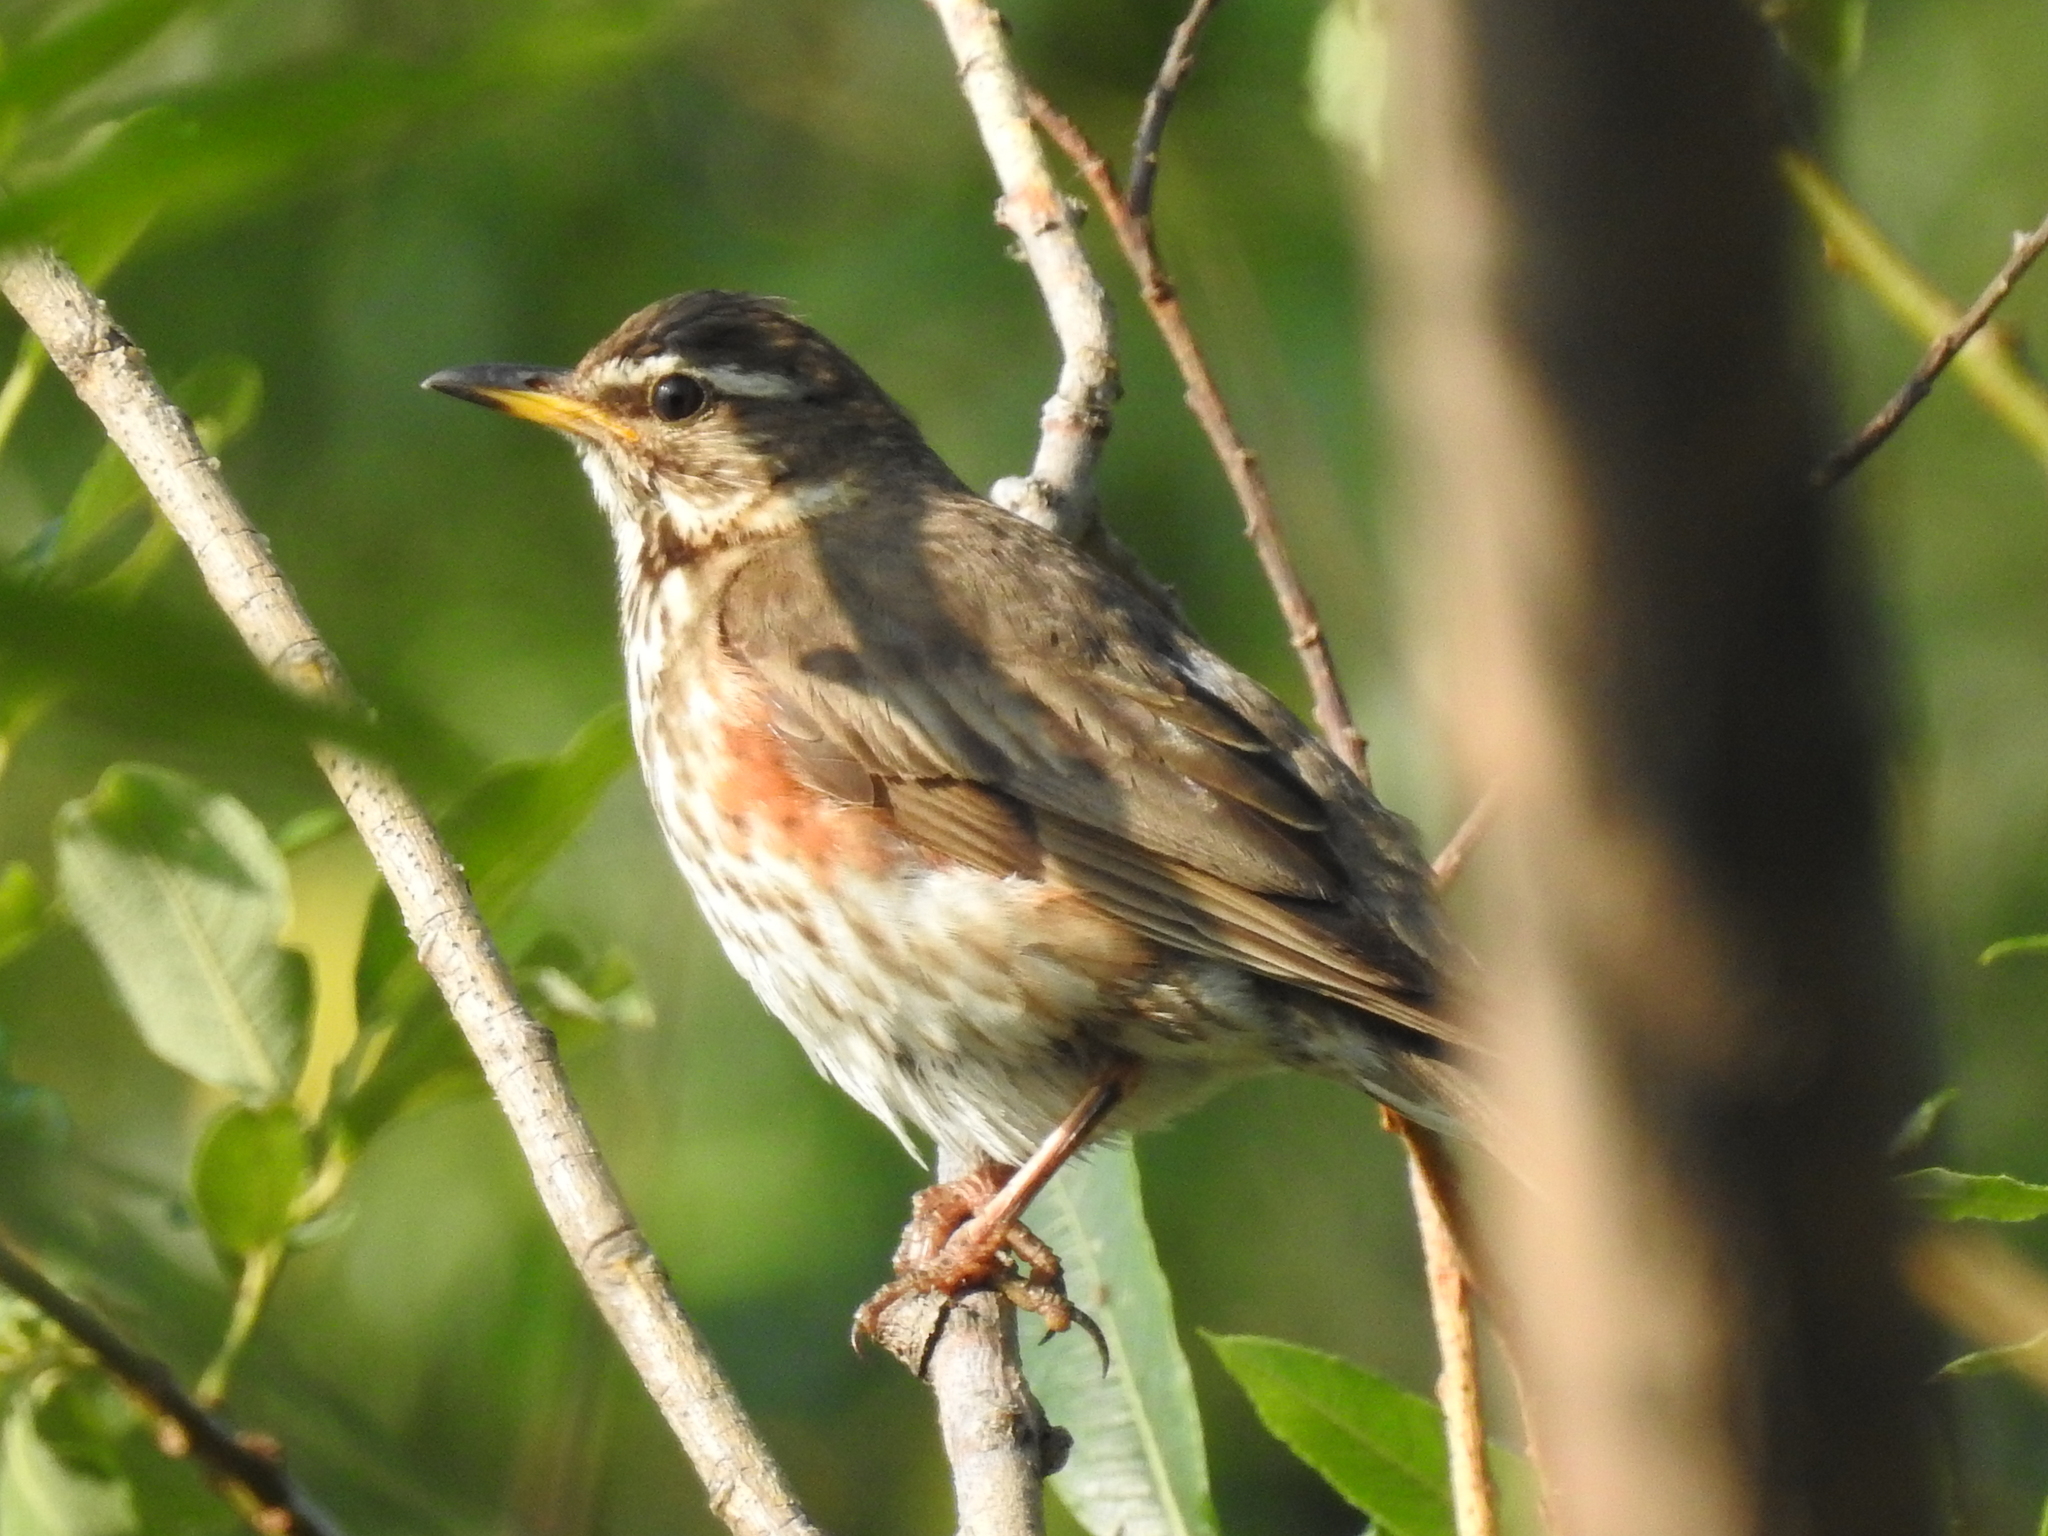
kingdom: Animalia
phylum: Chordata
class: Aves
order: Passeriformes
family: Turdidae
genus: Turdus
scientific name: Turdus iliacus
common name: Redwing
